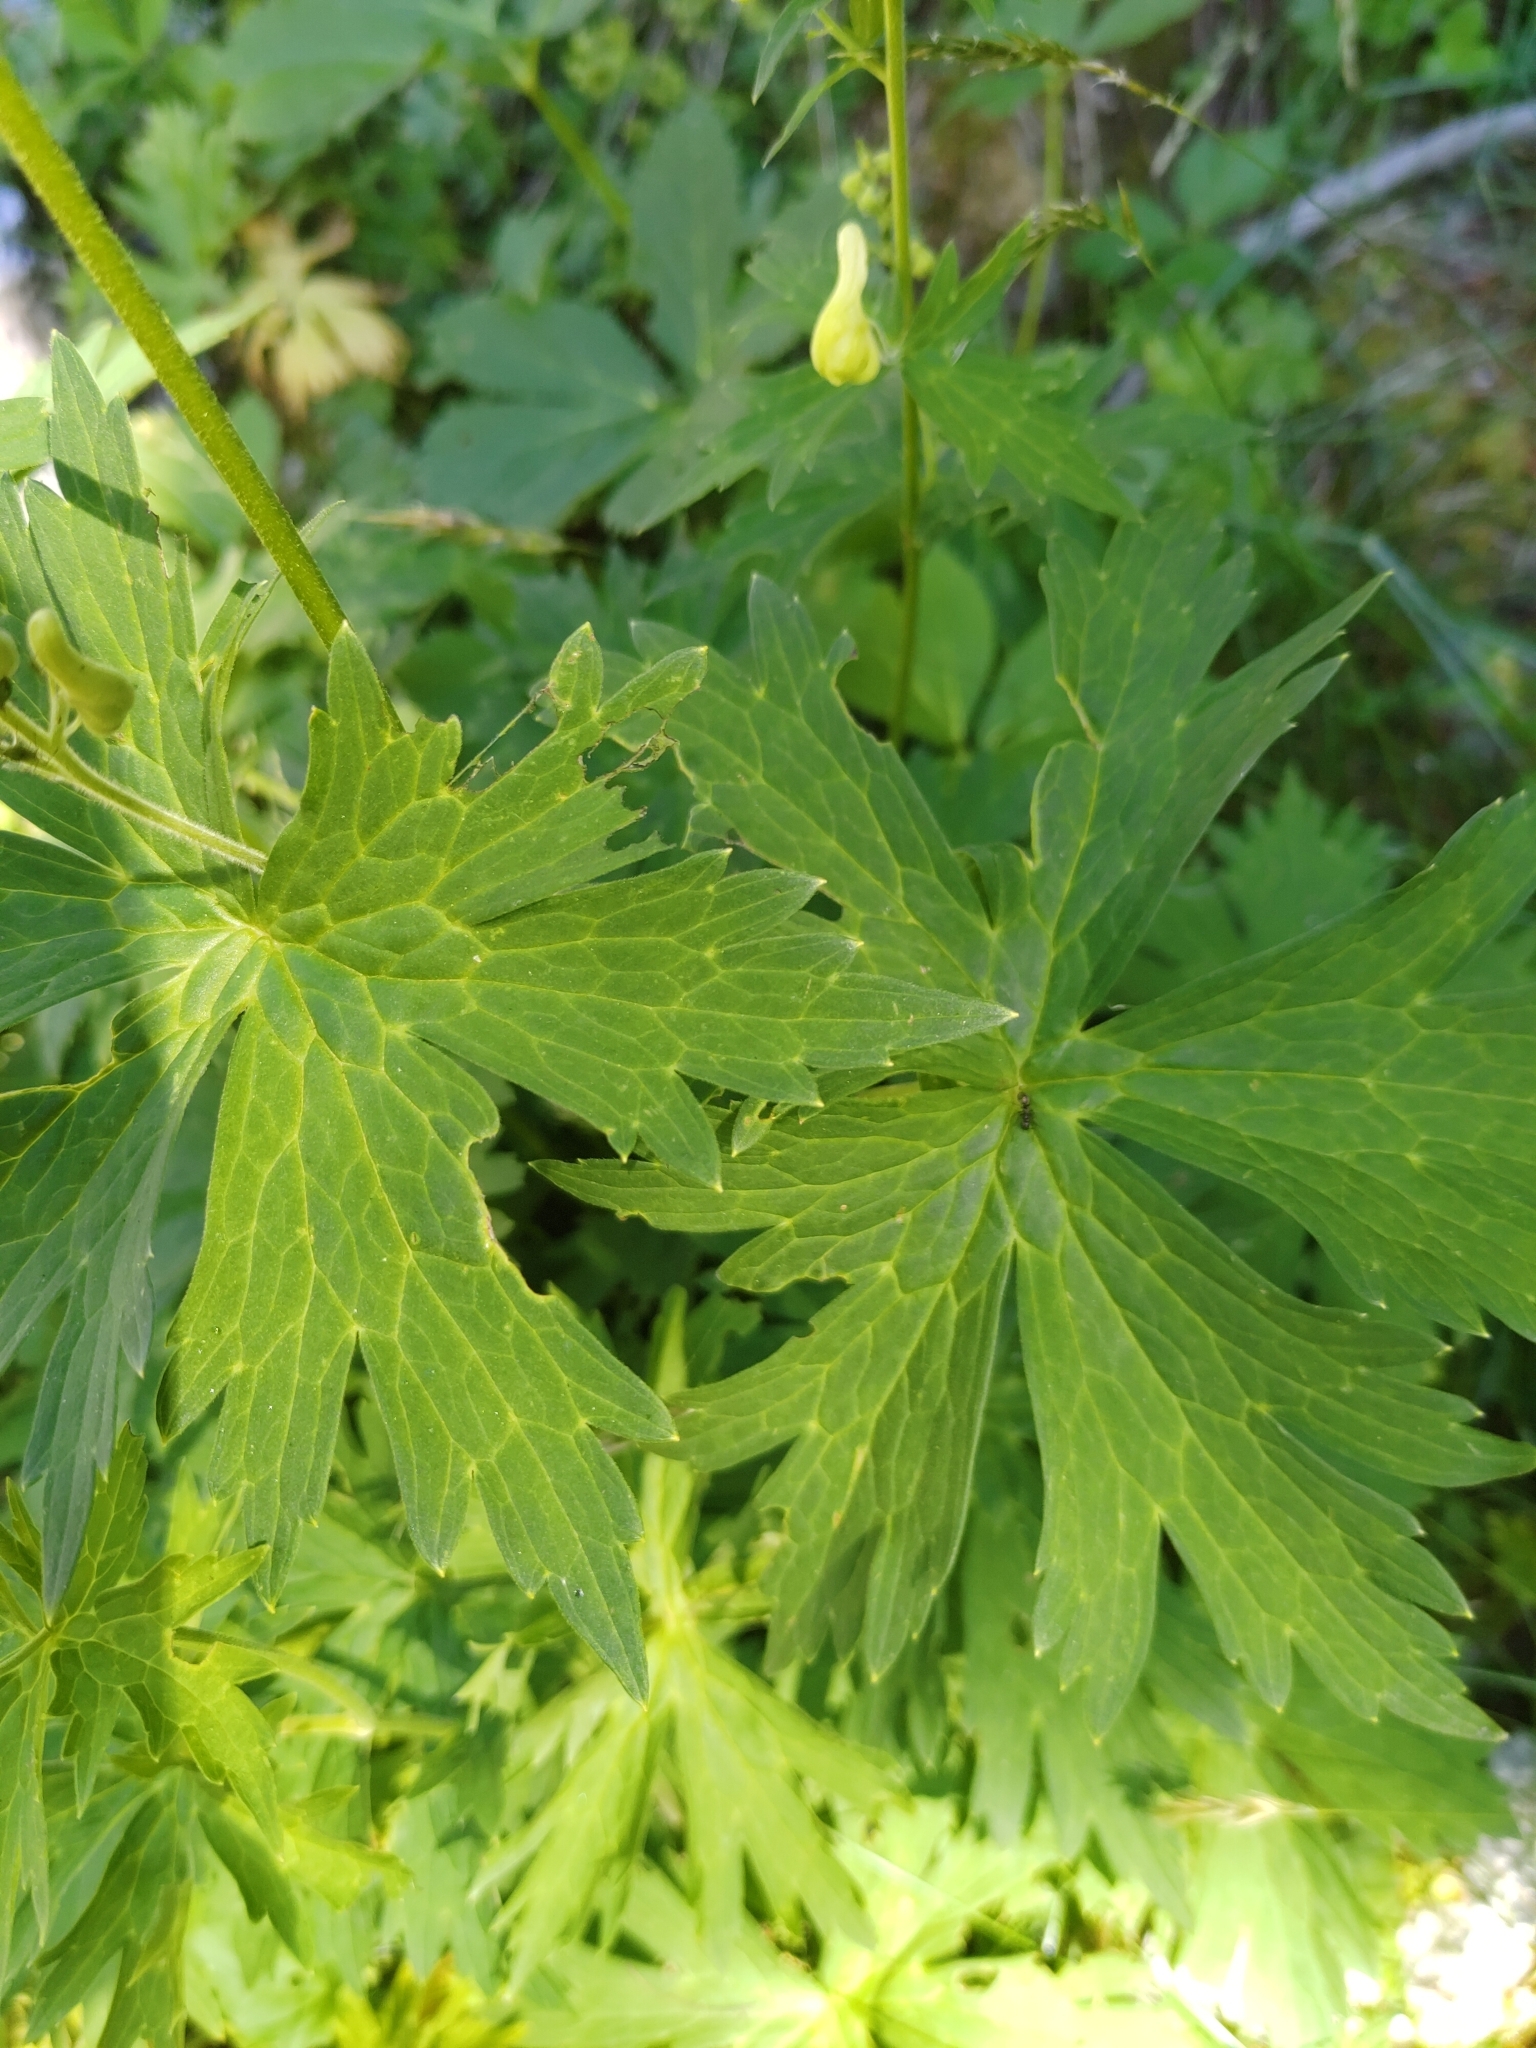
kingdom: Plantae
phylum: Tracheophyta
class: Magnoliopsida
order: Ranunculales
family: Ranunculaceae
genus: Aconitum
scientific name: Aconitum lycoctonum
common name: Wolf's-bane
